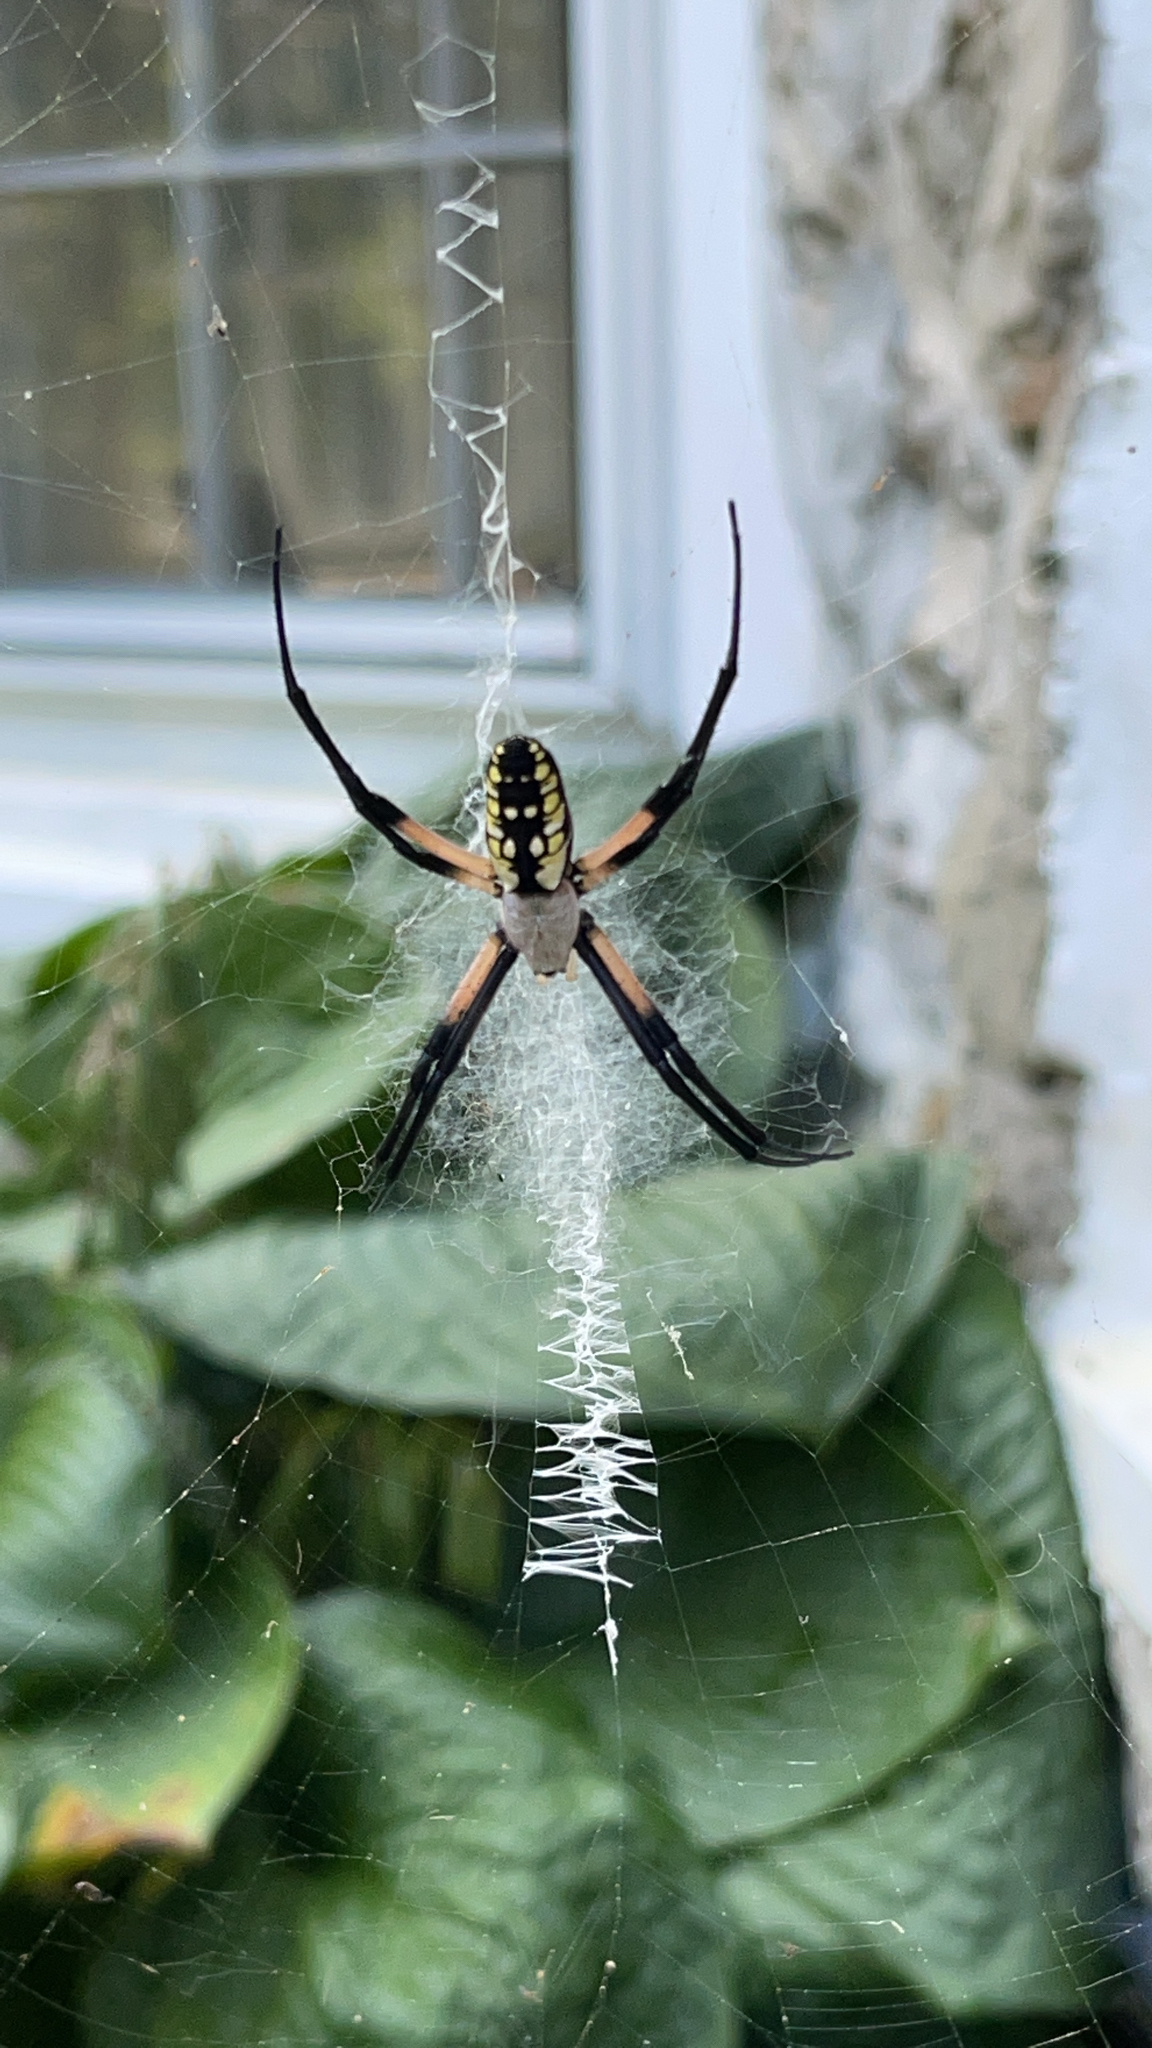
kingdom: Animalia
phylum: Arthropoda
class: Arachnida
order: Araneae
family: Araneidae
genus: Argiope
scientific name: Argiope aurantia
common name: Orb weavers
